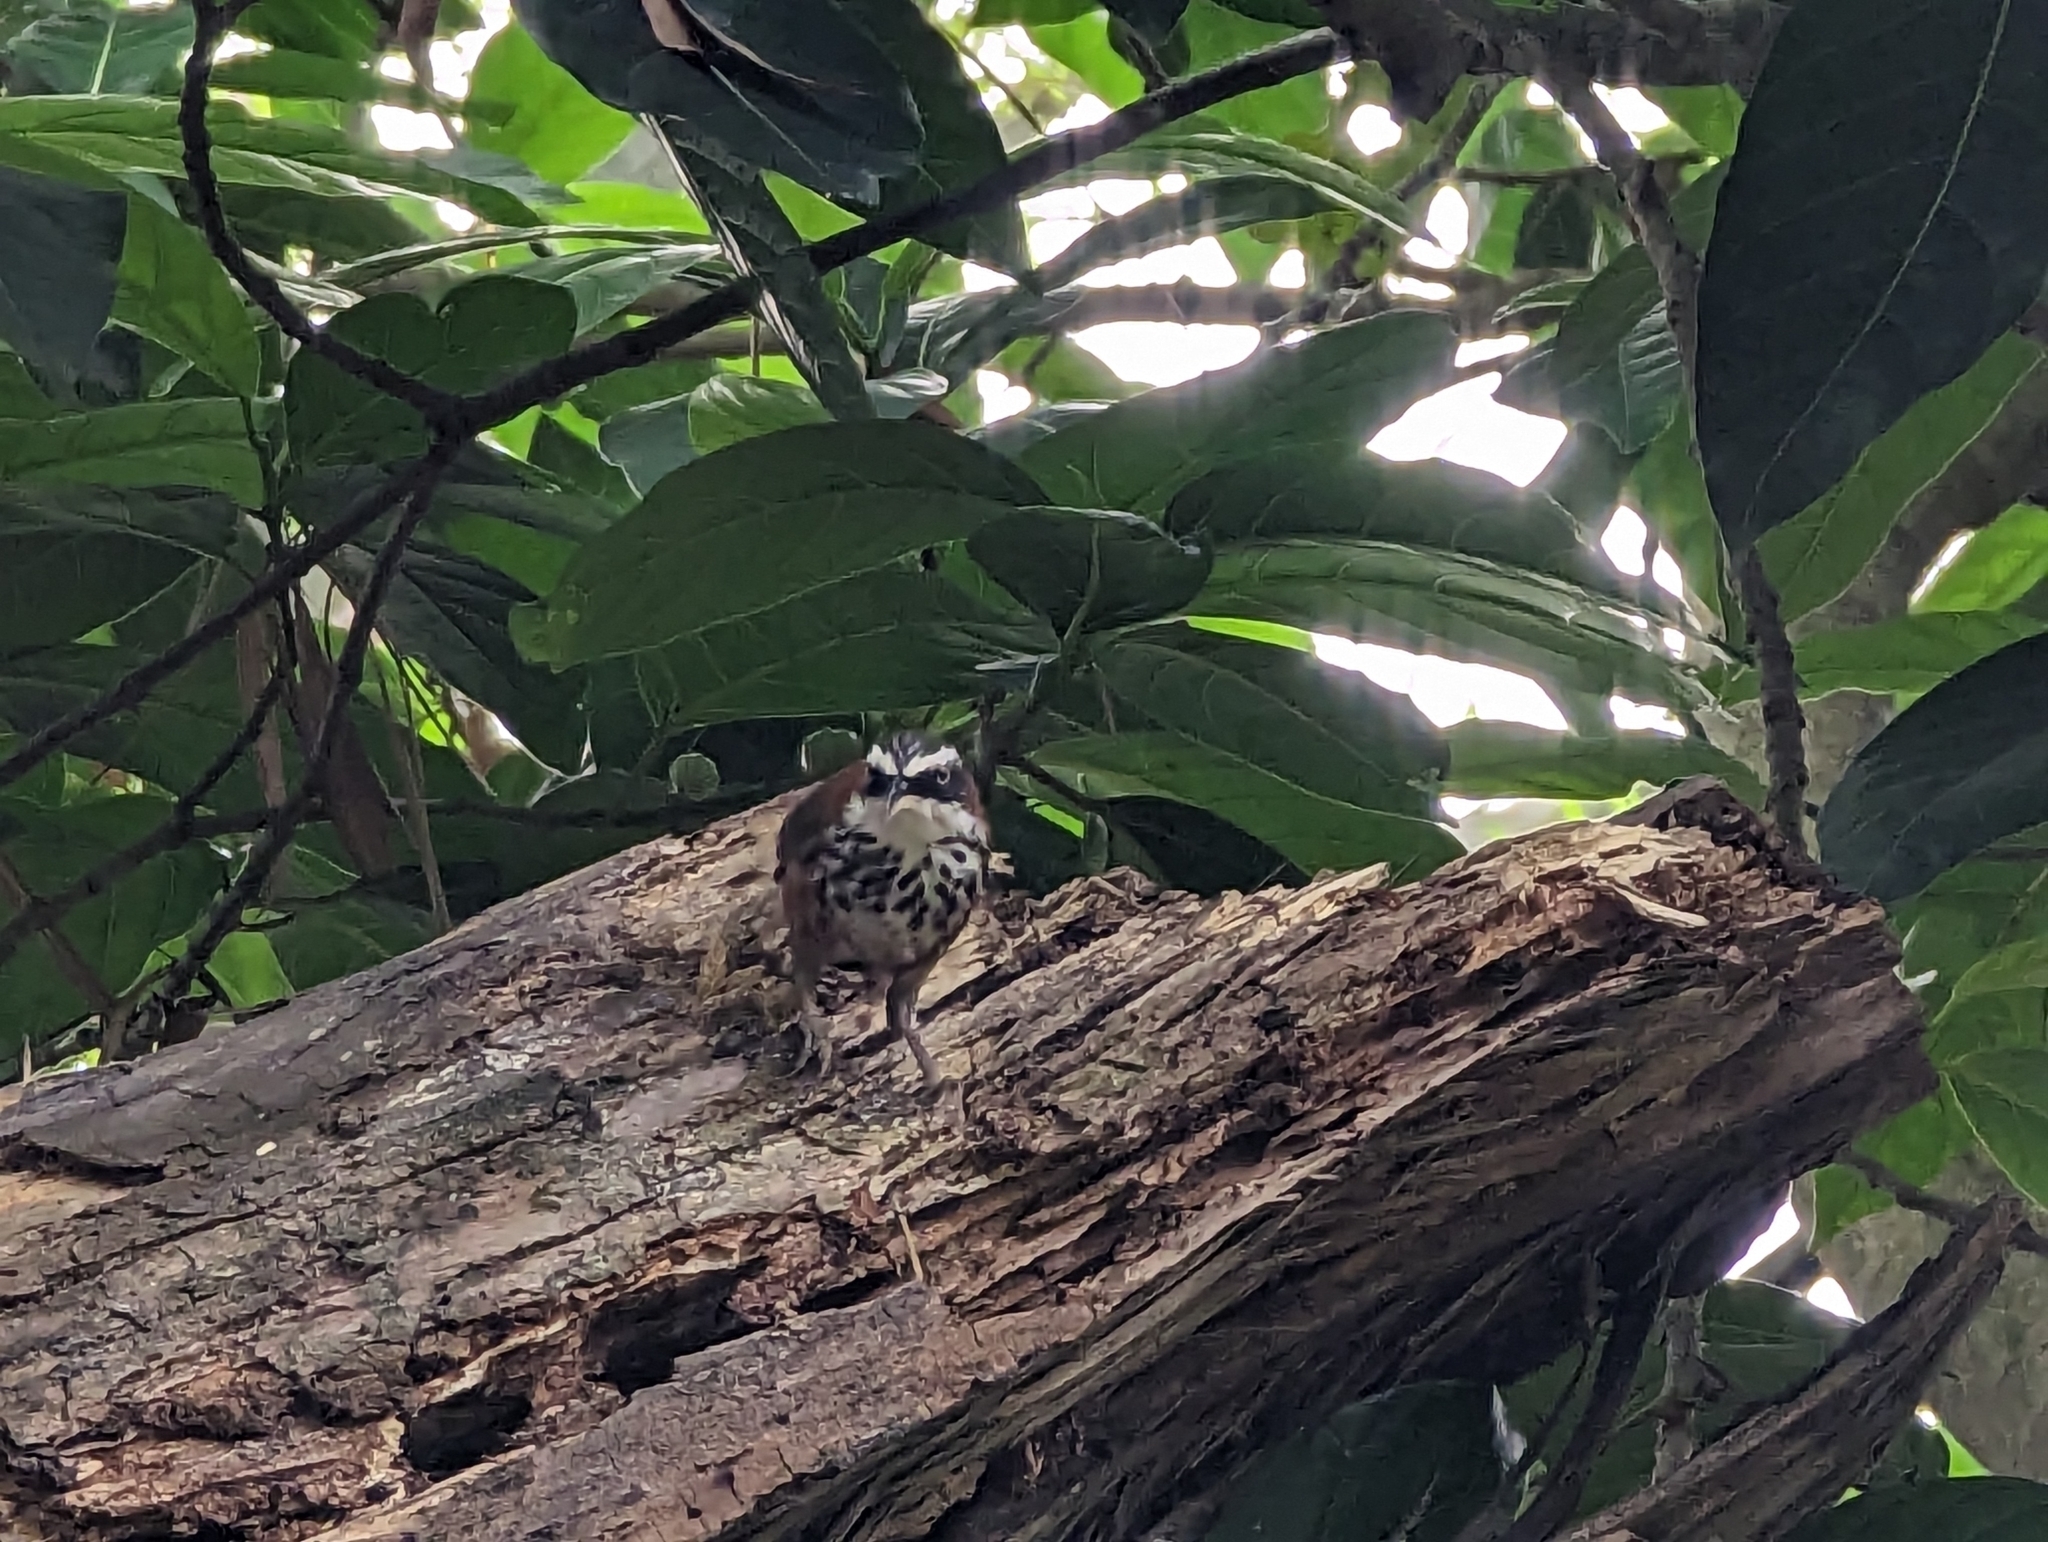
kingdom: Animalia
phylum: Chordata
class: Aves
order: Passeriformes
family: Timaliidae
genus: Pomatorhinus
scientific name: Pomatorhinus musicus
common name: Taiwan scimitar-babbler
